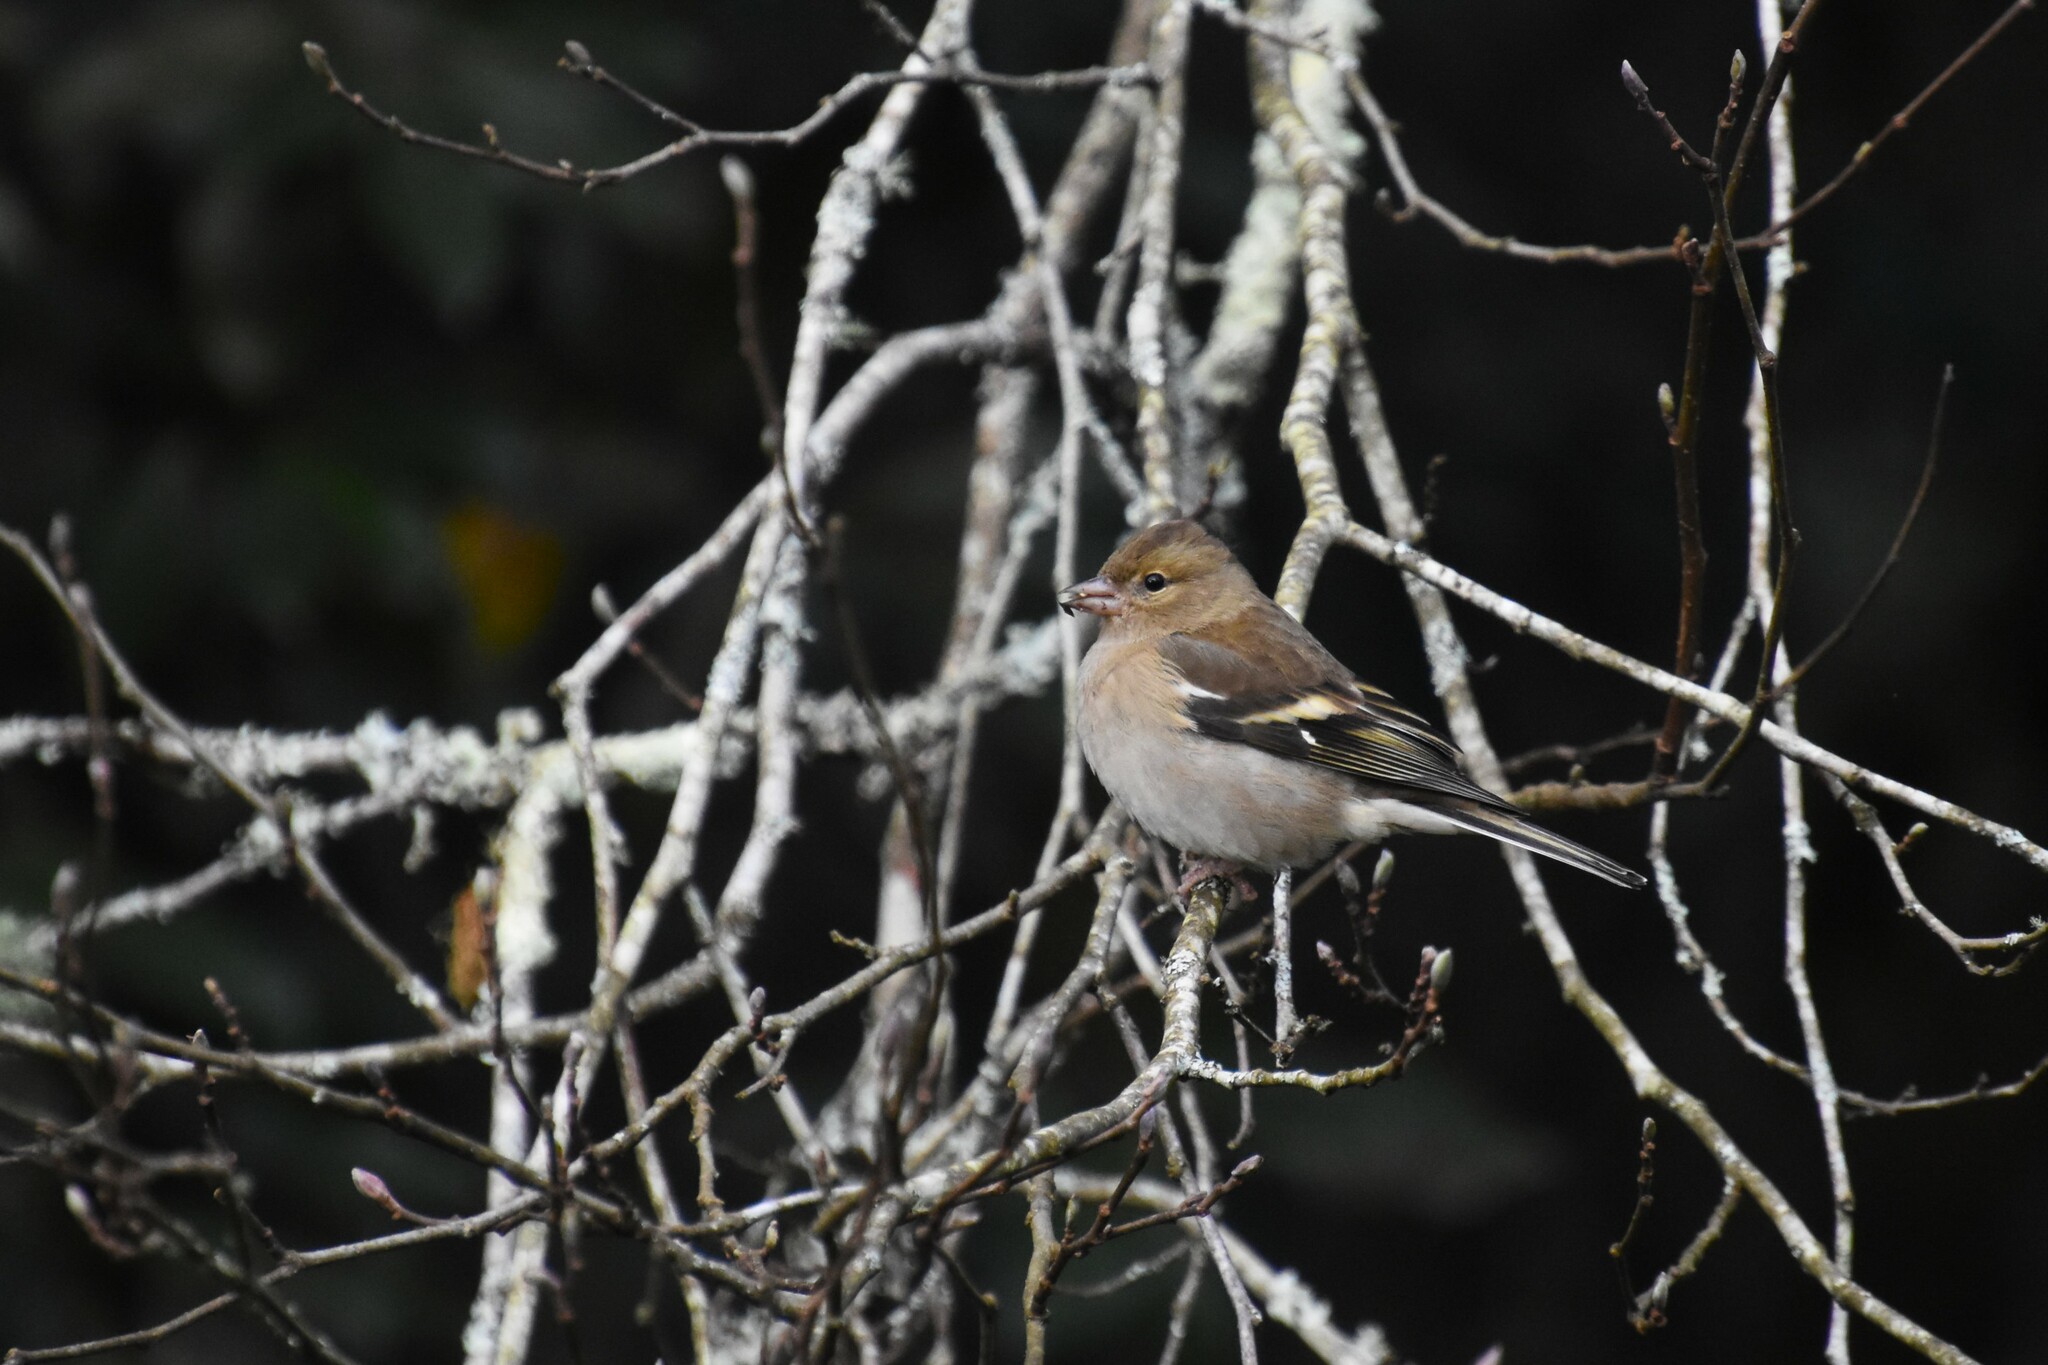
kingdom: Animalia
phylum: Chordata
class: Aves
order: Passeriformes
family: Fringillidae
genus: Fringilla
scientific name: Fringilla coelebs
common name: Common chaffinch
